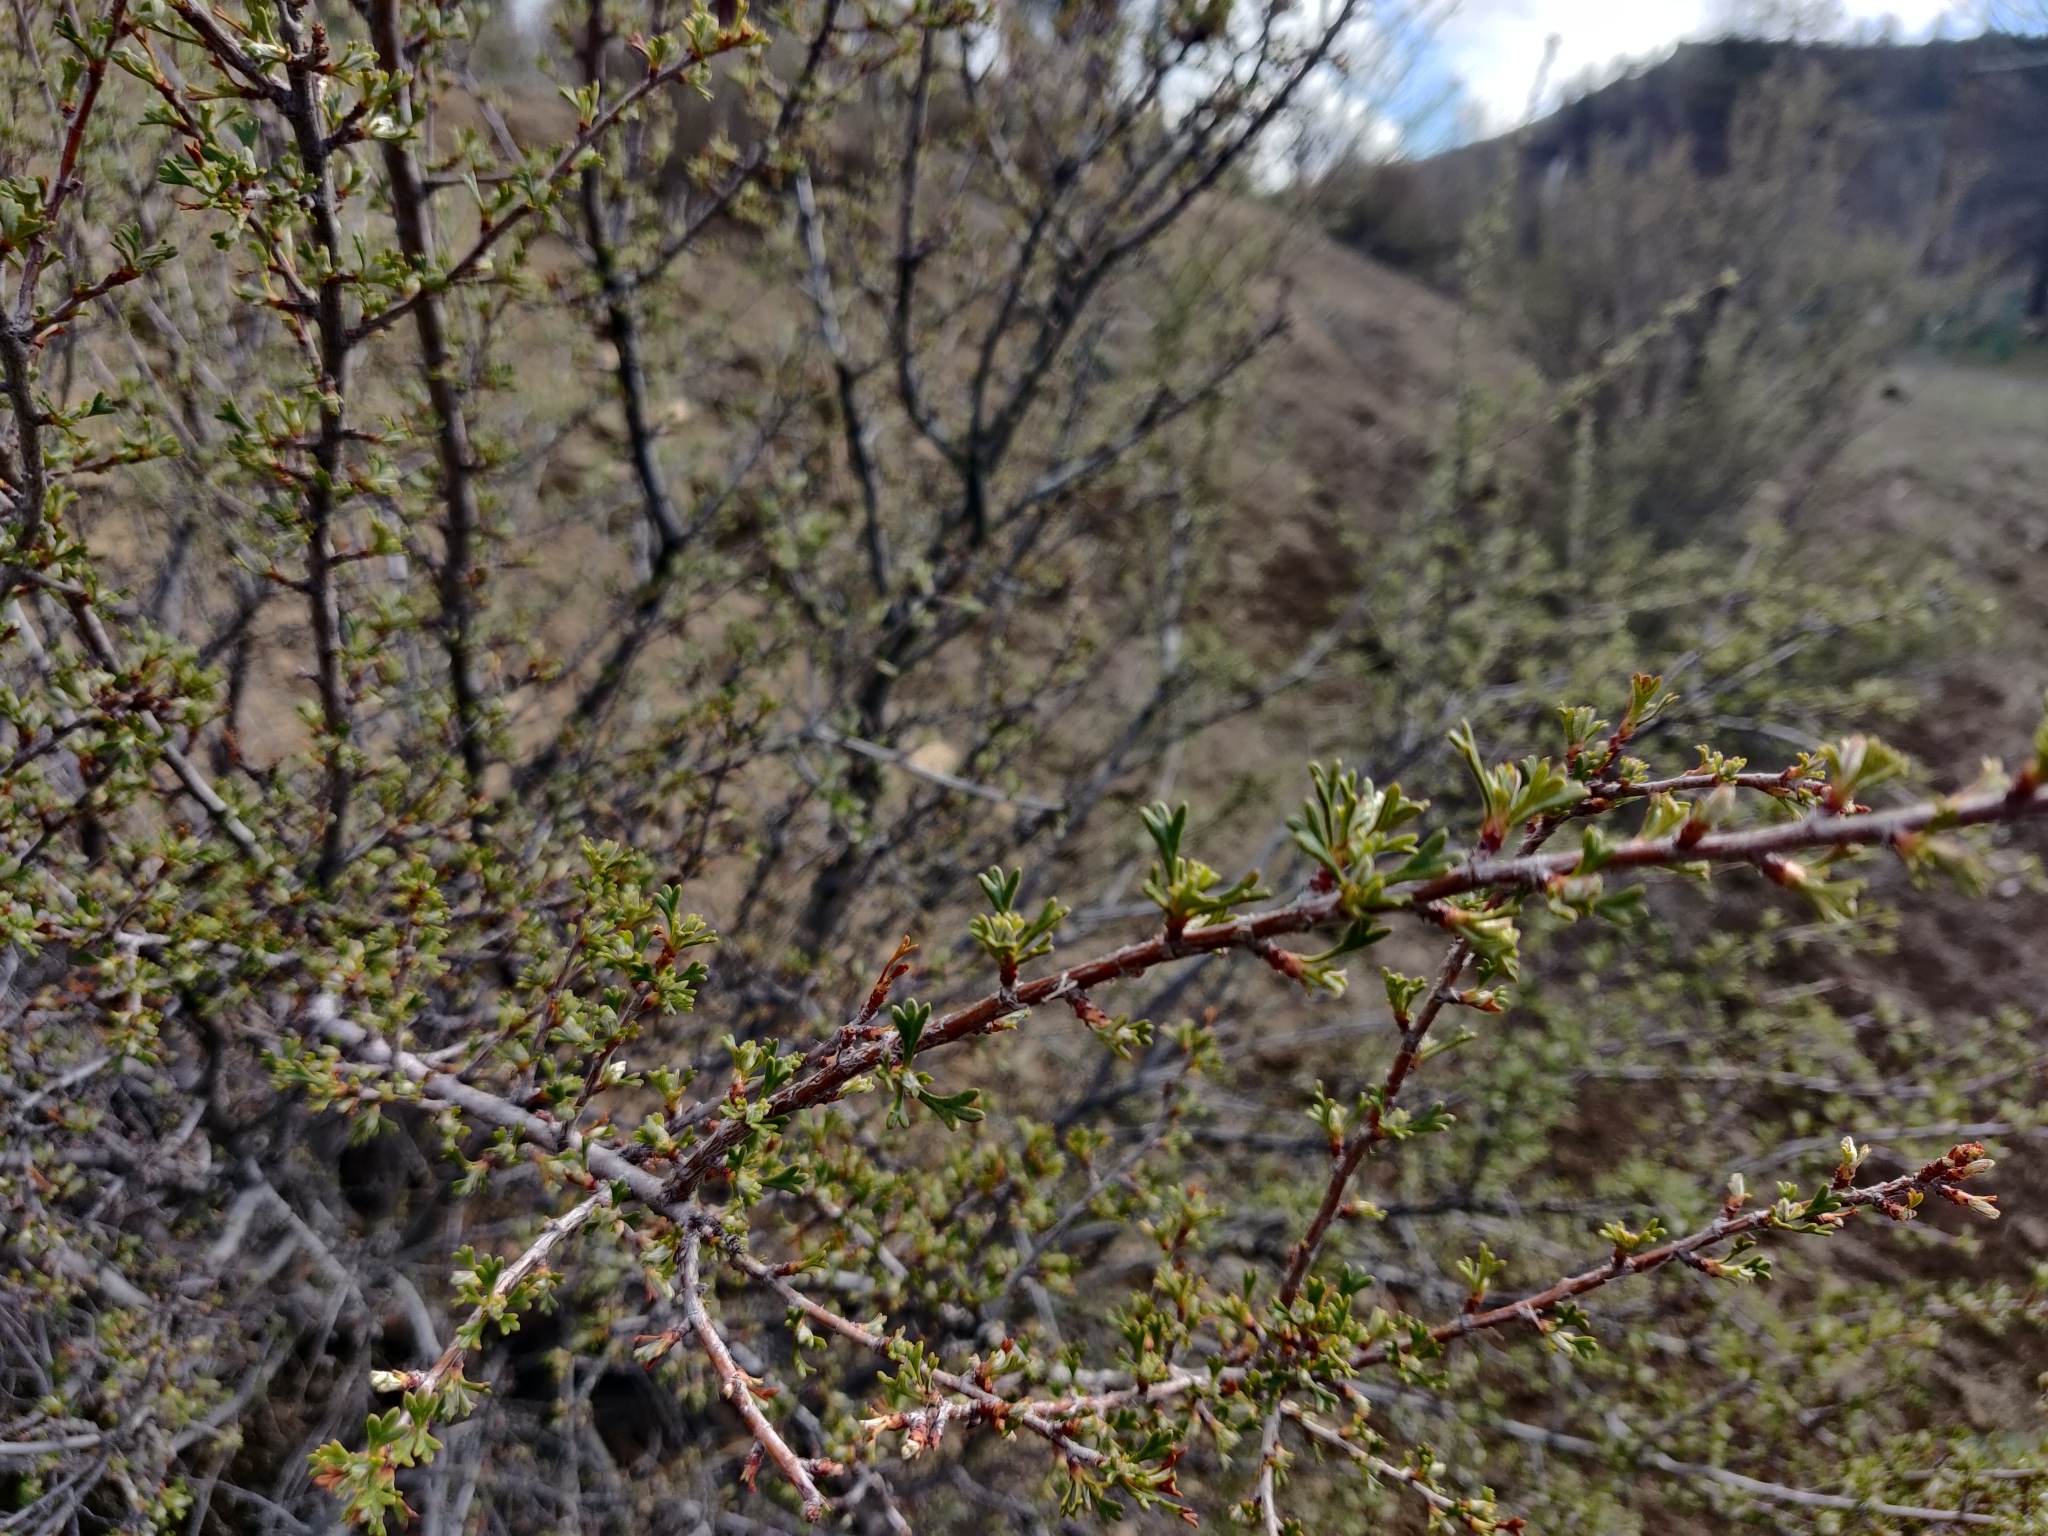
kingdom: Plantae
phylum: Tracheophyta
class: Magnoliopsida
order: Rosales
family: Rosaceae
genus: Purshia
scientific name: Purshia tridentata
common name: Antelope bitterbrush
